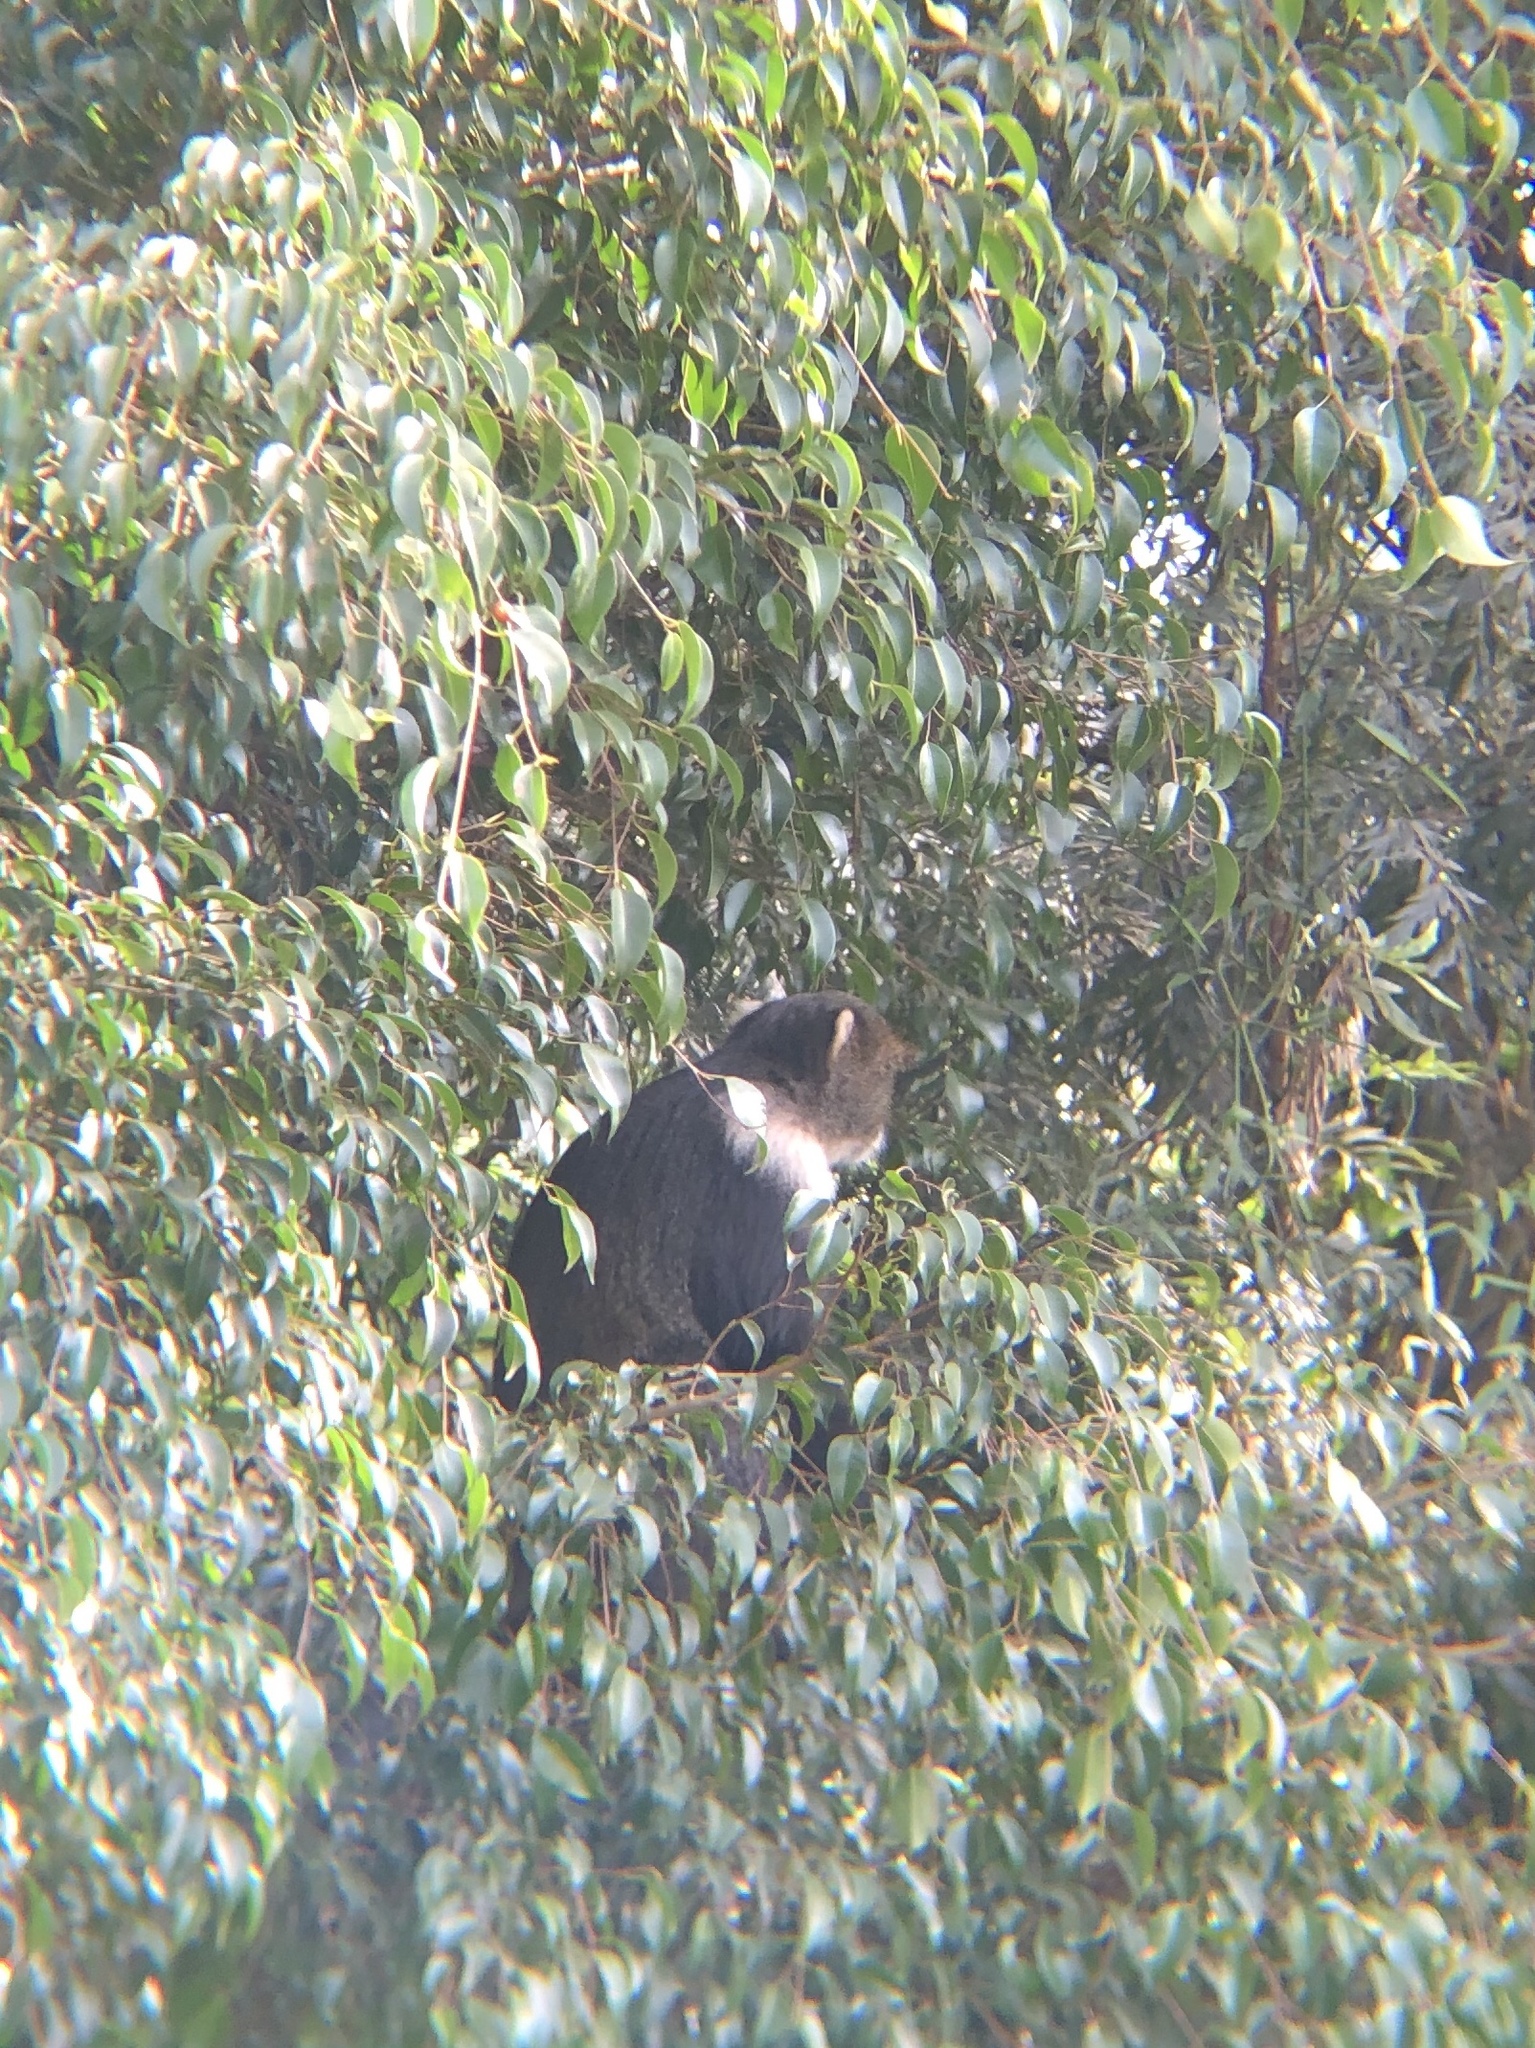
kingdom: Animalia
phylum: Chordata
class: Mammalia
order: Primates
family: Cercopithecidae
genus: Cercopithecus
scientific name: Cercopithecus mitis
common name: Blue monkey
